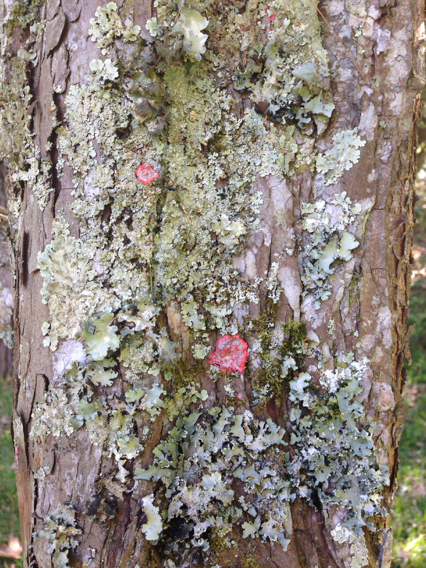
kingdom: Fungi
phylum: Ascomycota
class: Arthoniomycetes
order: Arthoniales
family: Arthoniaceae
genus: Herpothallon
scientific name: Herpothallon rubrocinctum
